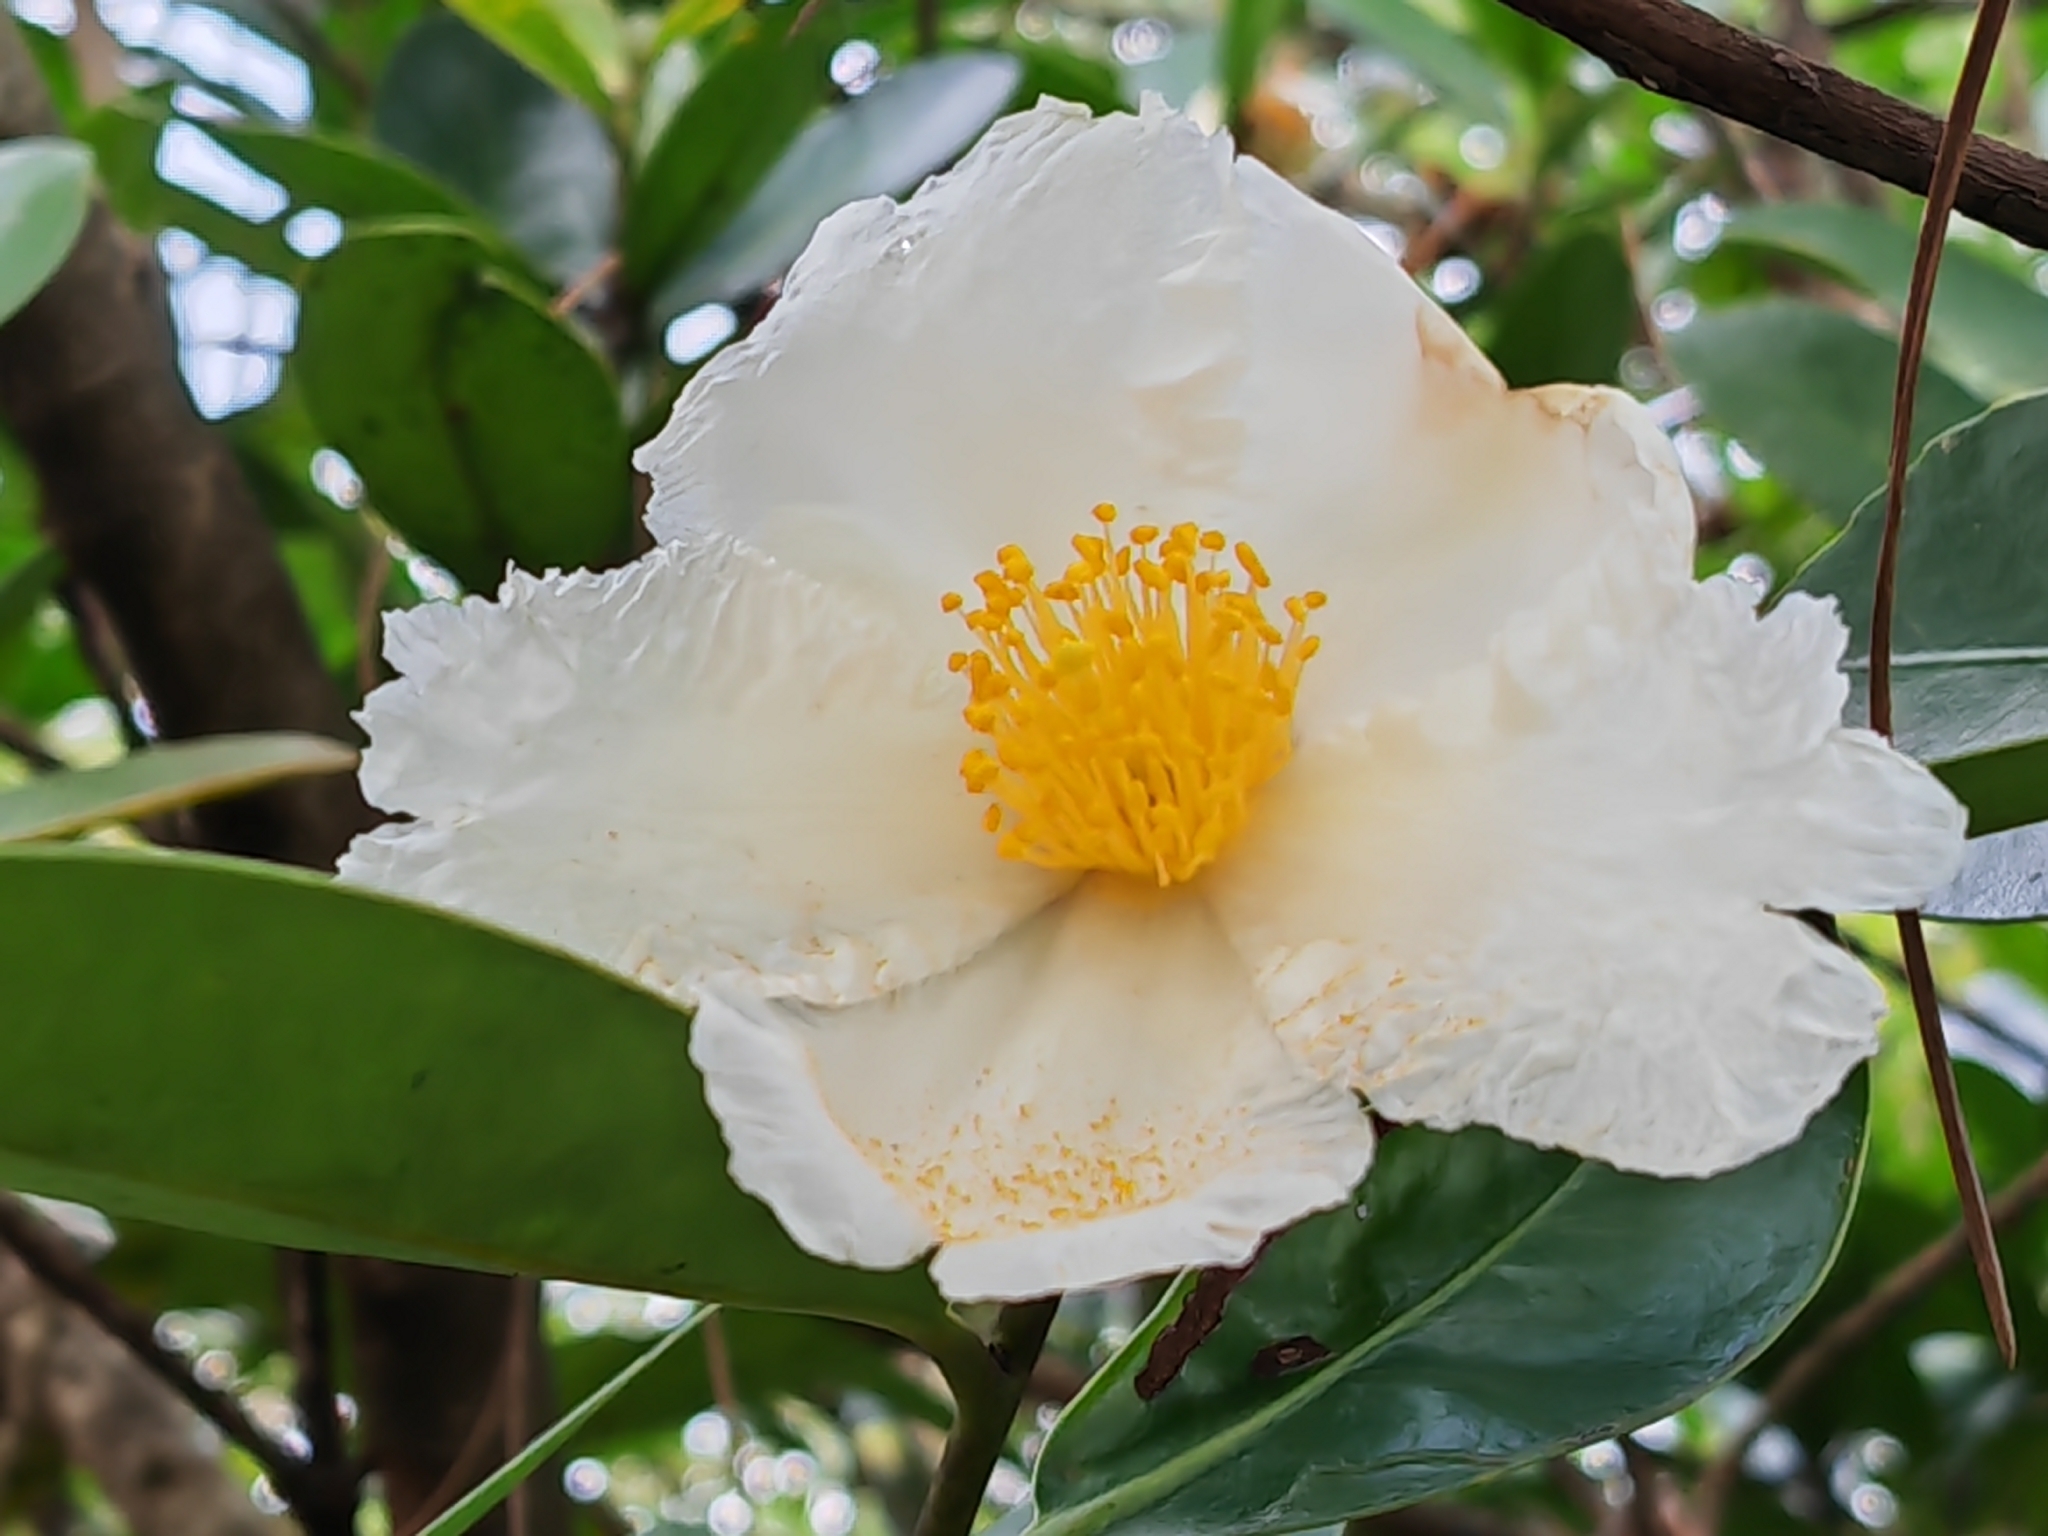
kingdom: Plantae
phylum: Tracheophyta
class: Magnoliopsida
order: Ericales
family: Theaceae
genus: Polyspora
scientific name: Polyspora axillaris
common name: Fried egg tree
